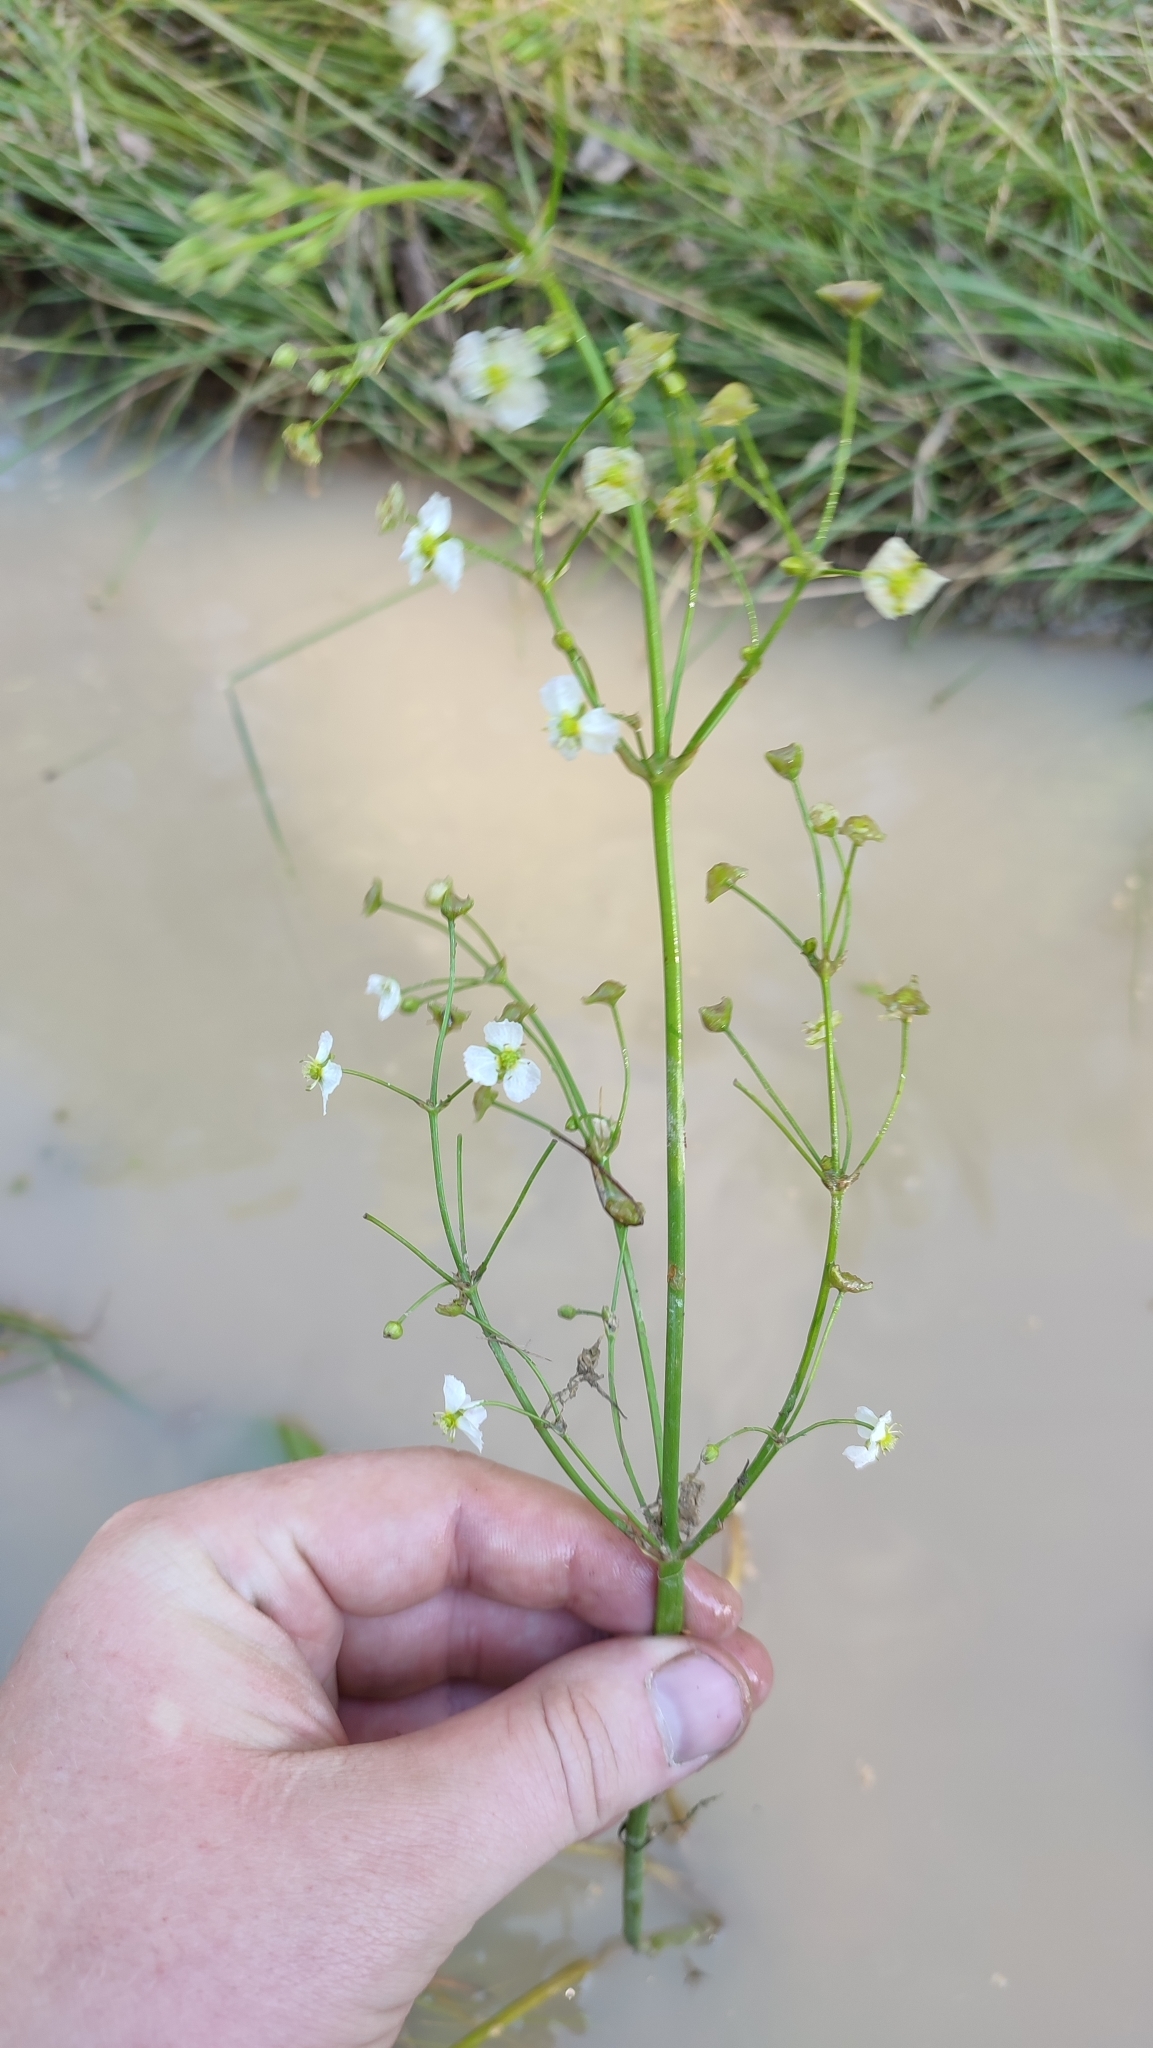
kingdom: Plantae
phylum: Tracheophyta
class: Liliopsida
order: Alismatales
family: Alismataceae
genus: Alisma
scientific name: Alisma plantago-aquatica
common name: Water-plantain
